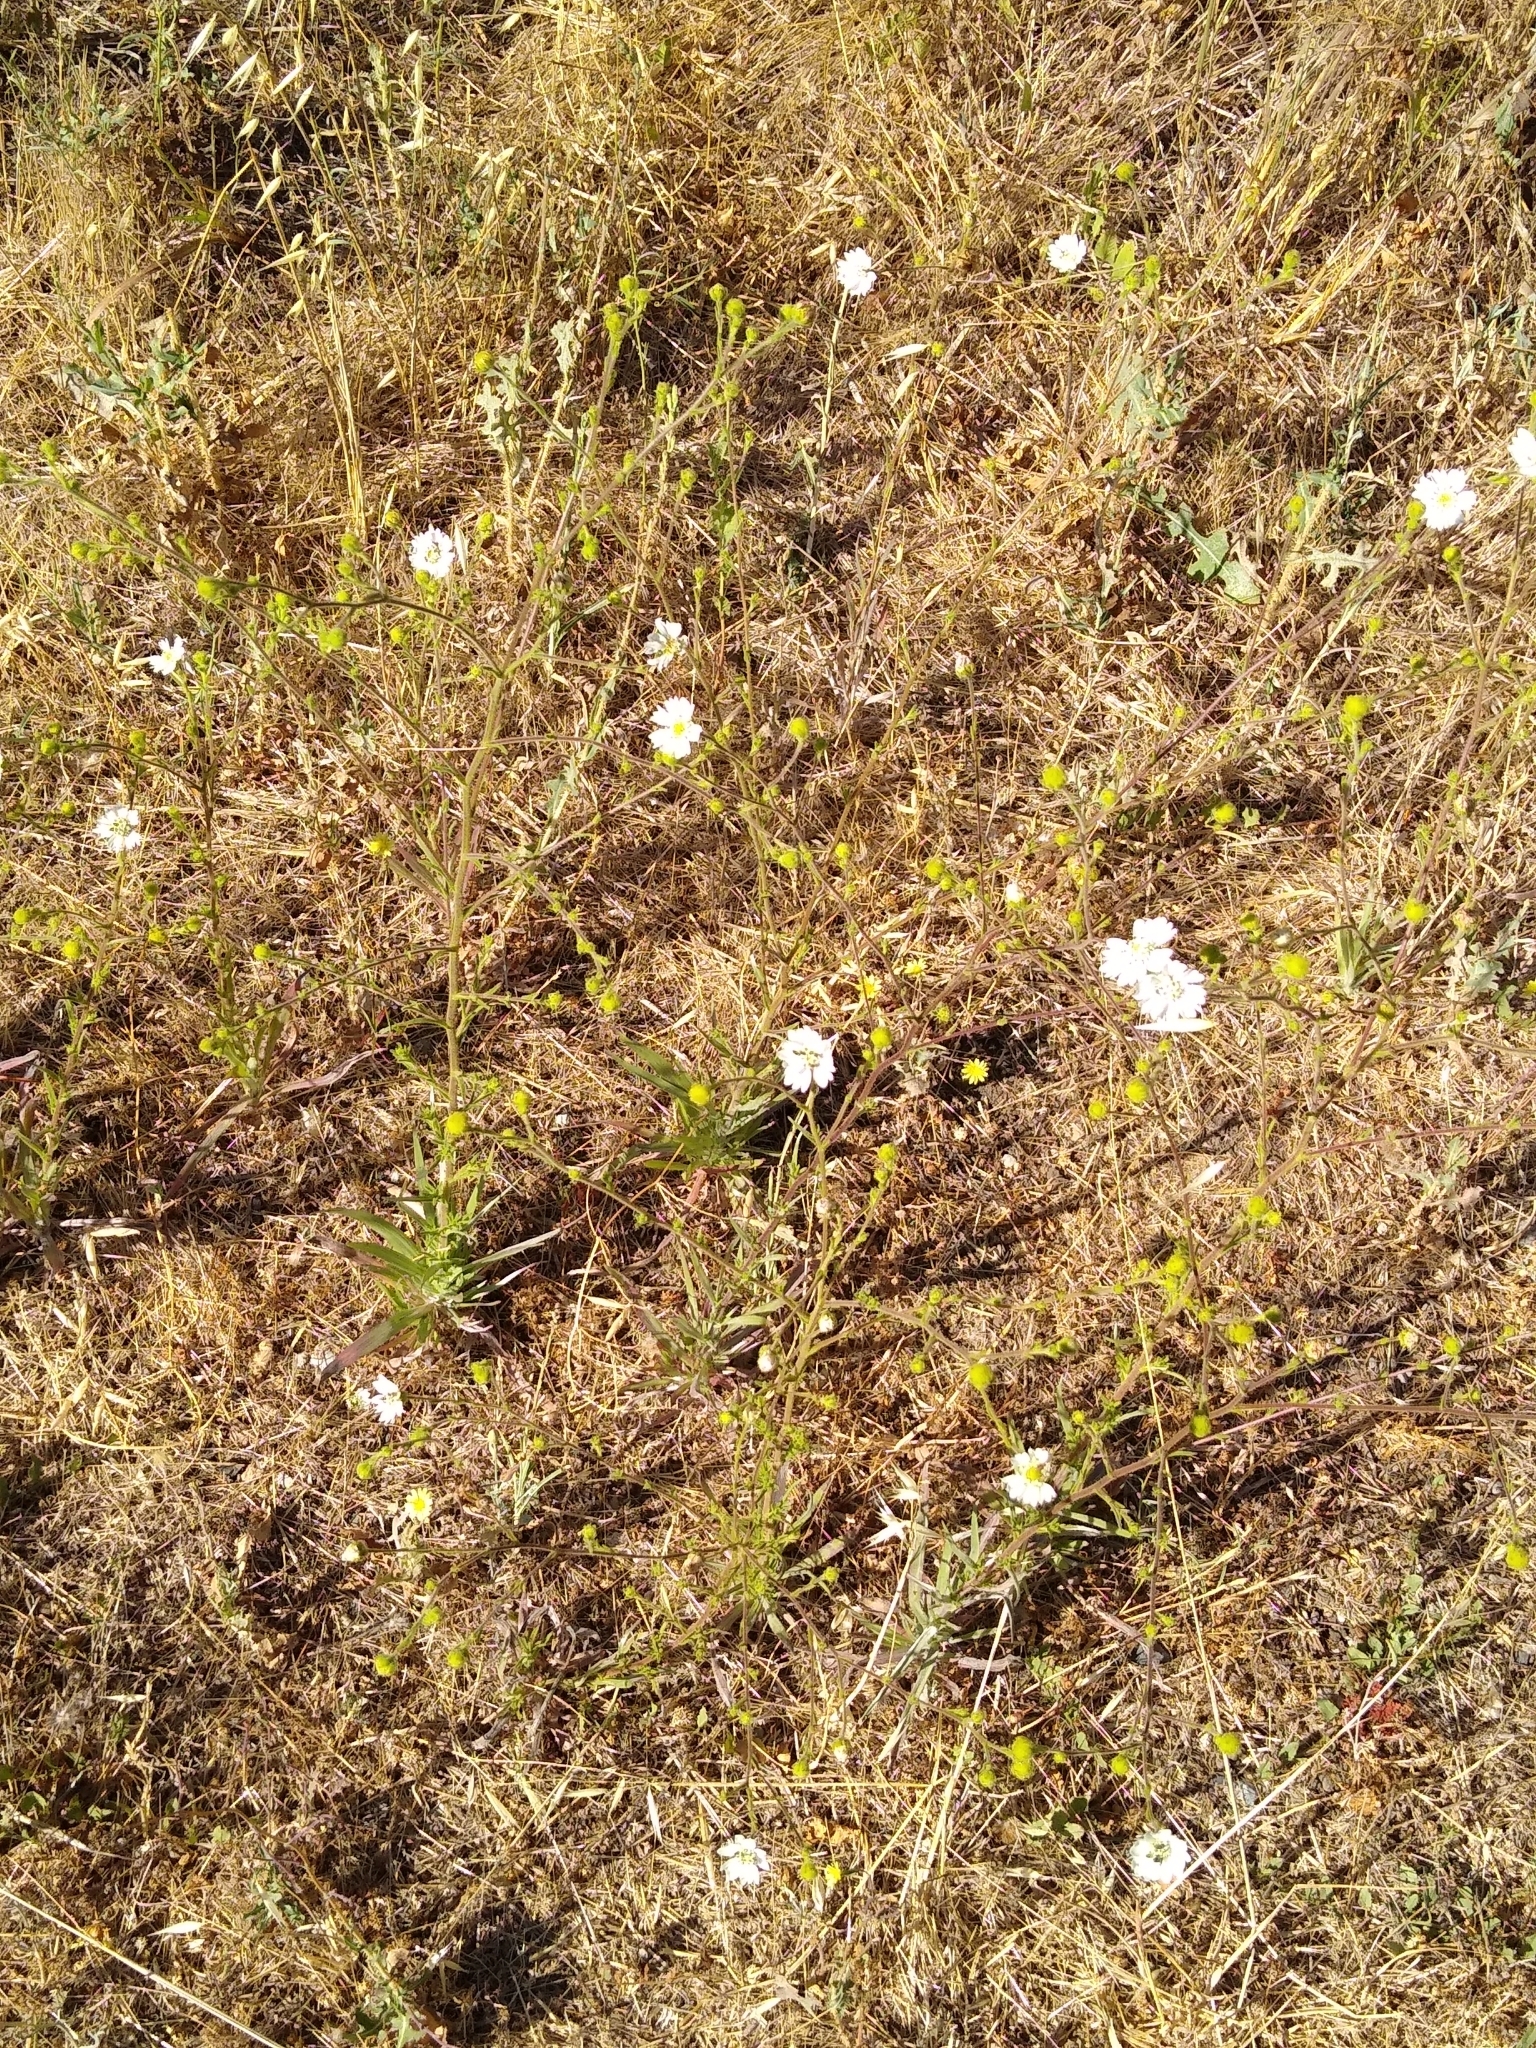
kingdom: Plantae
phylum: Tracheophyta
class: Magnoliopsida
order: Asterales
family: Asteraceae
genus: Hemizonia
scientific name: Hemizonia congesta
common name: Hayfield tarweed
